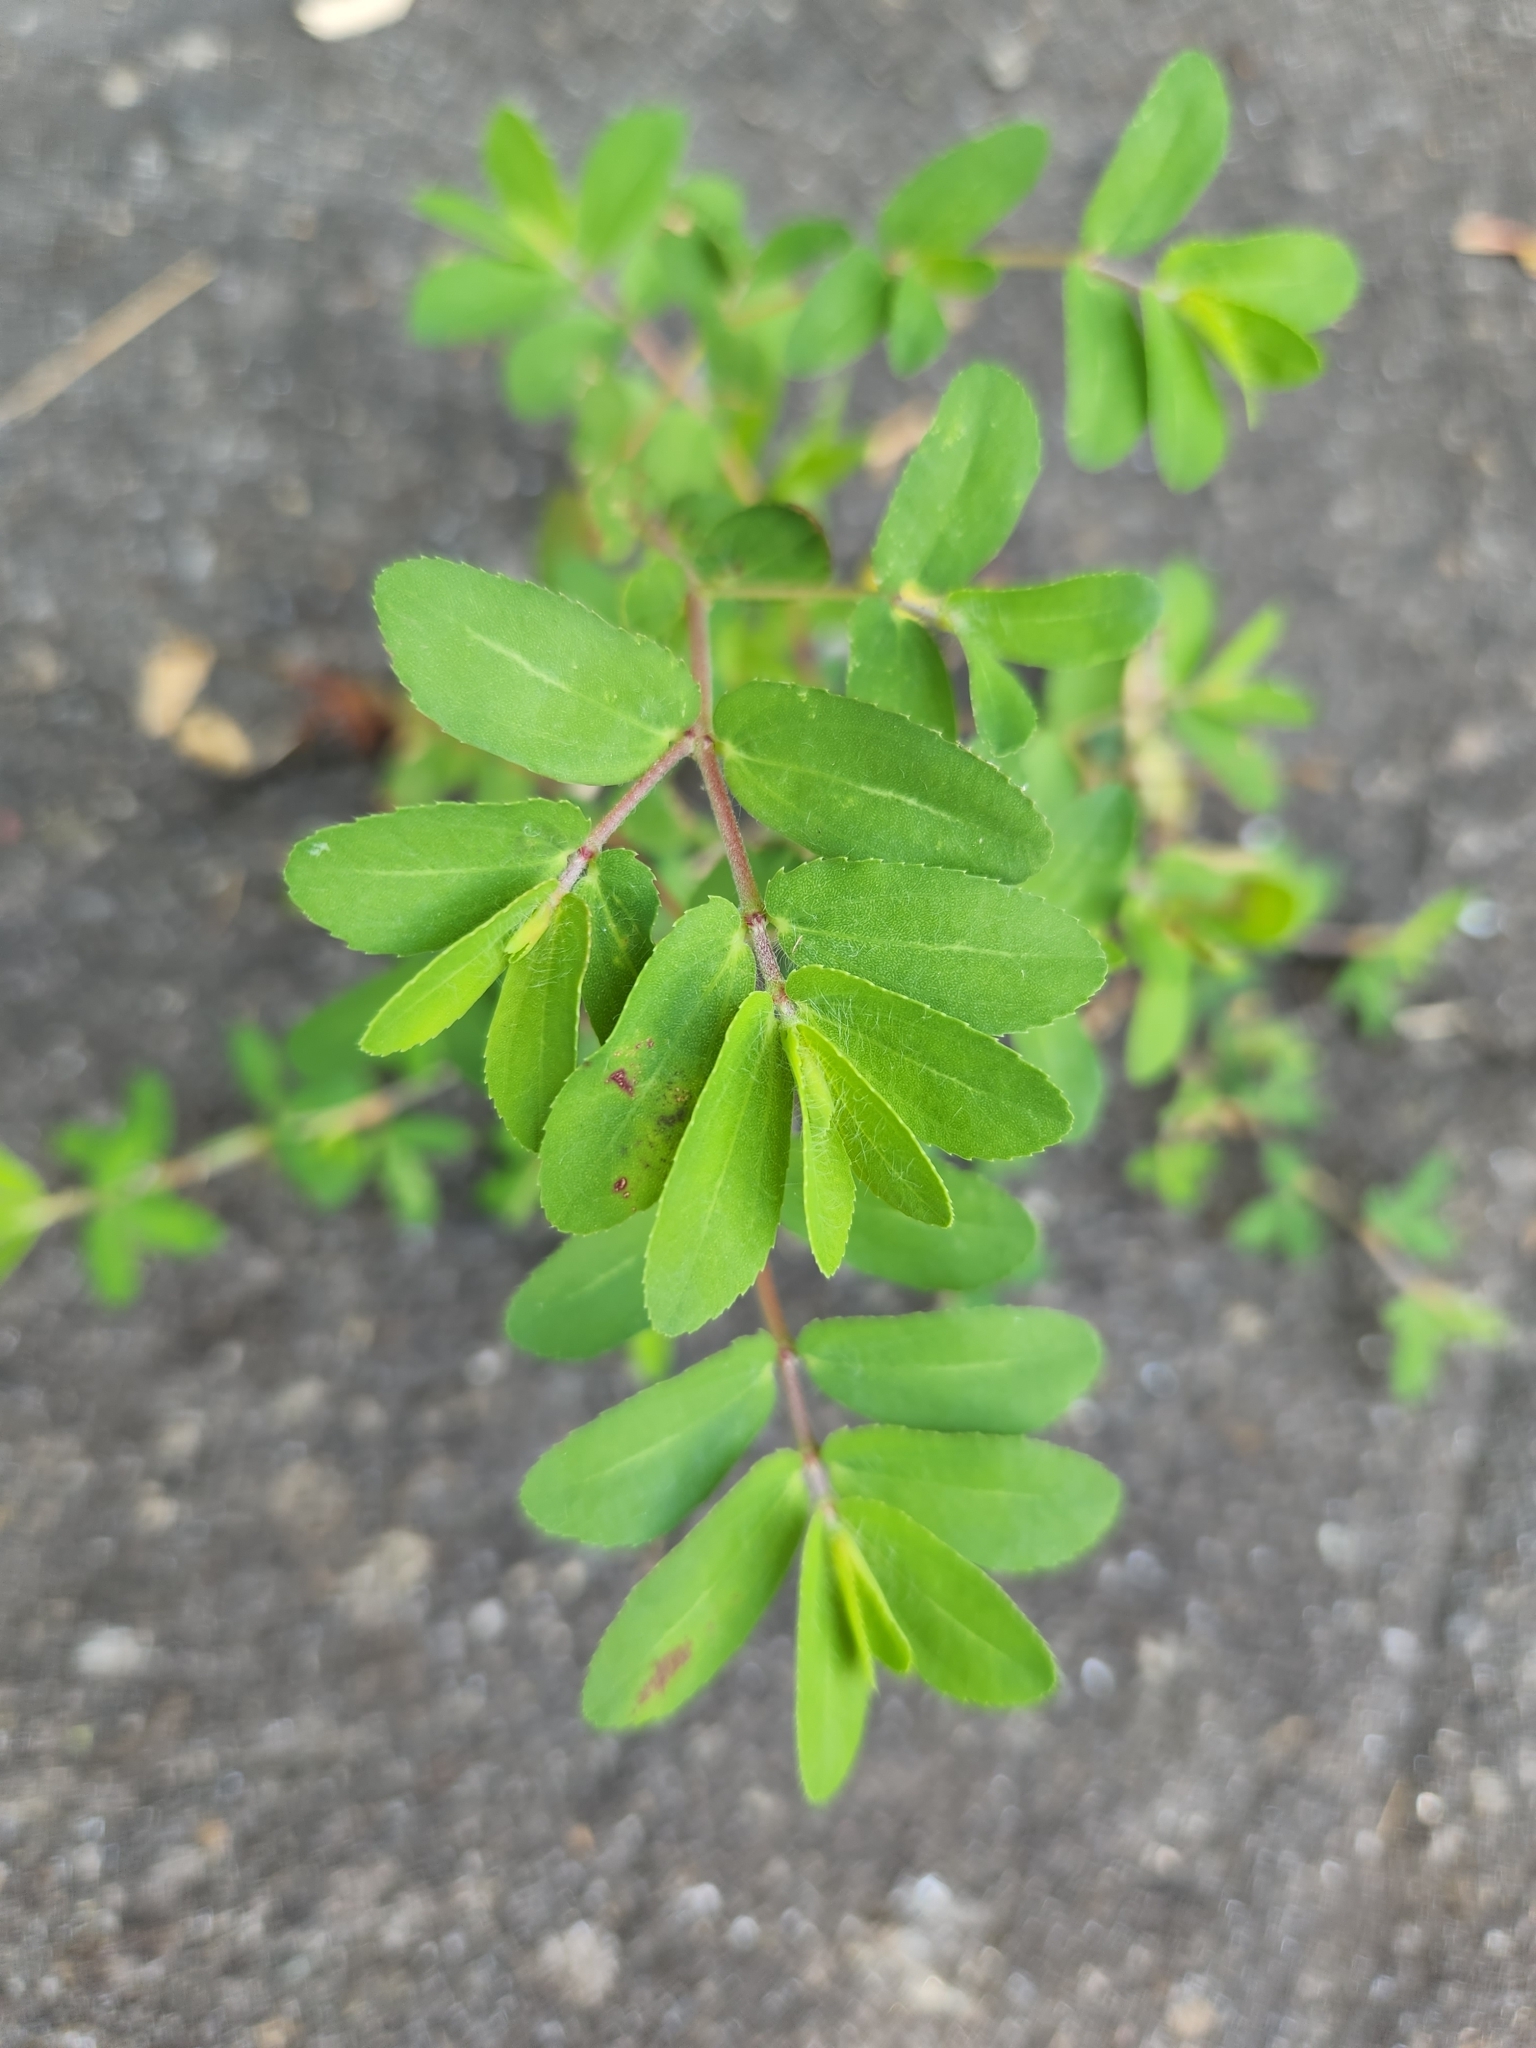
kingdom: Plantae
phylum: Tracheophyta
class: Magnoliopsida
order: Malpighiales
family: Euphorbiaceae
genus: Euphorbia
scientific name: Euphorbia nutans
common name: Eyebane
